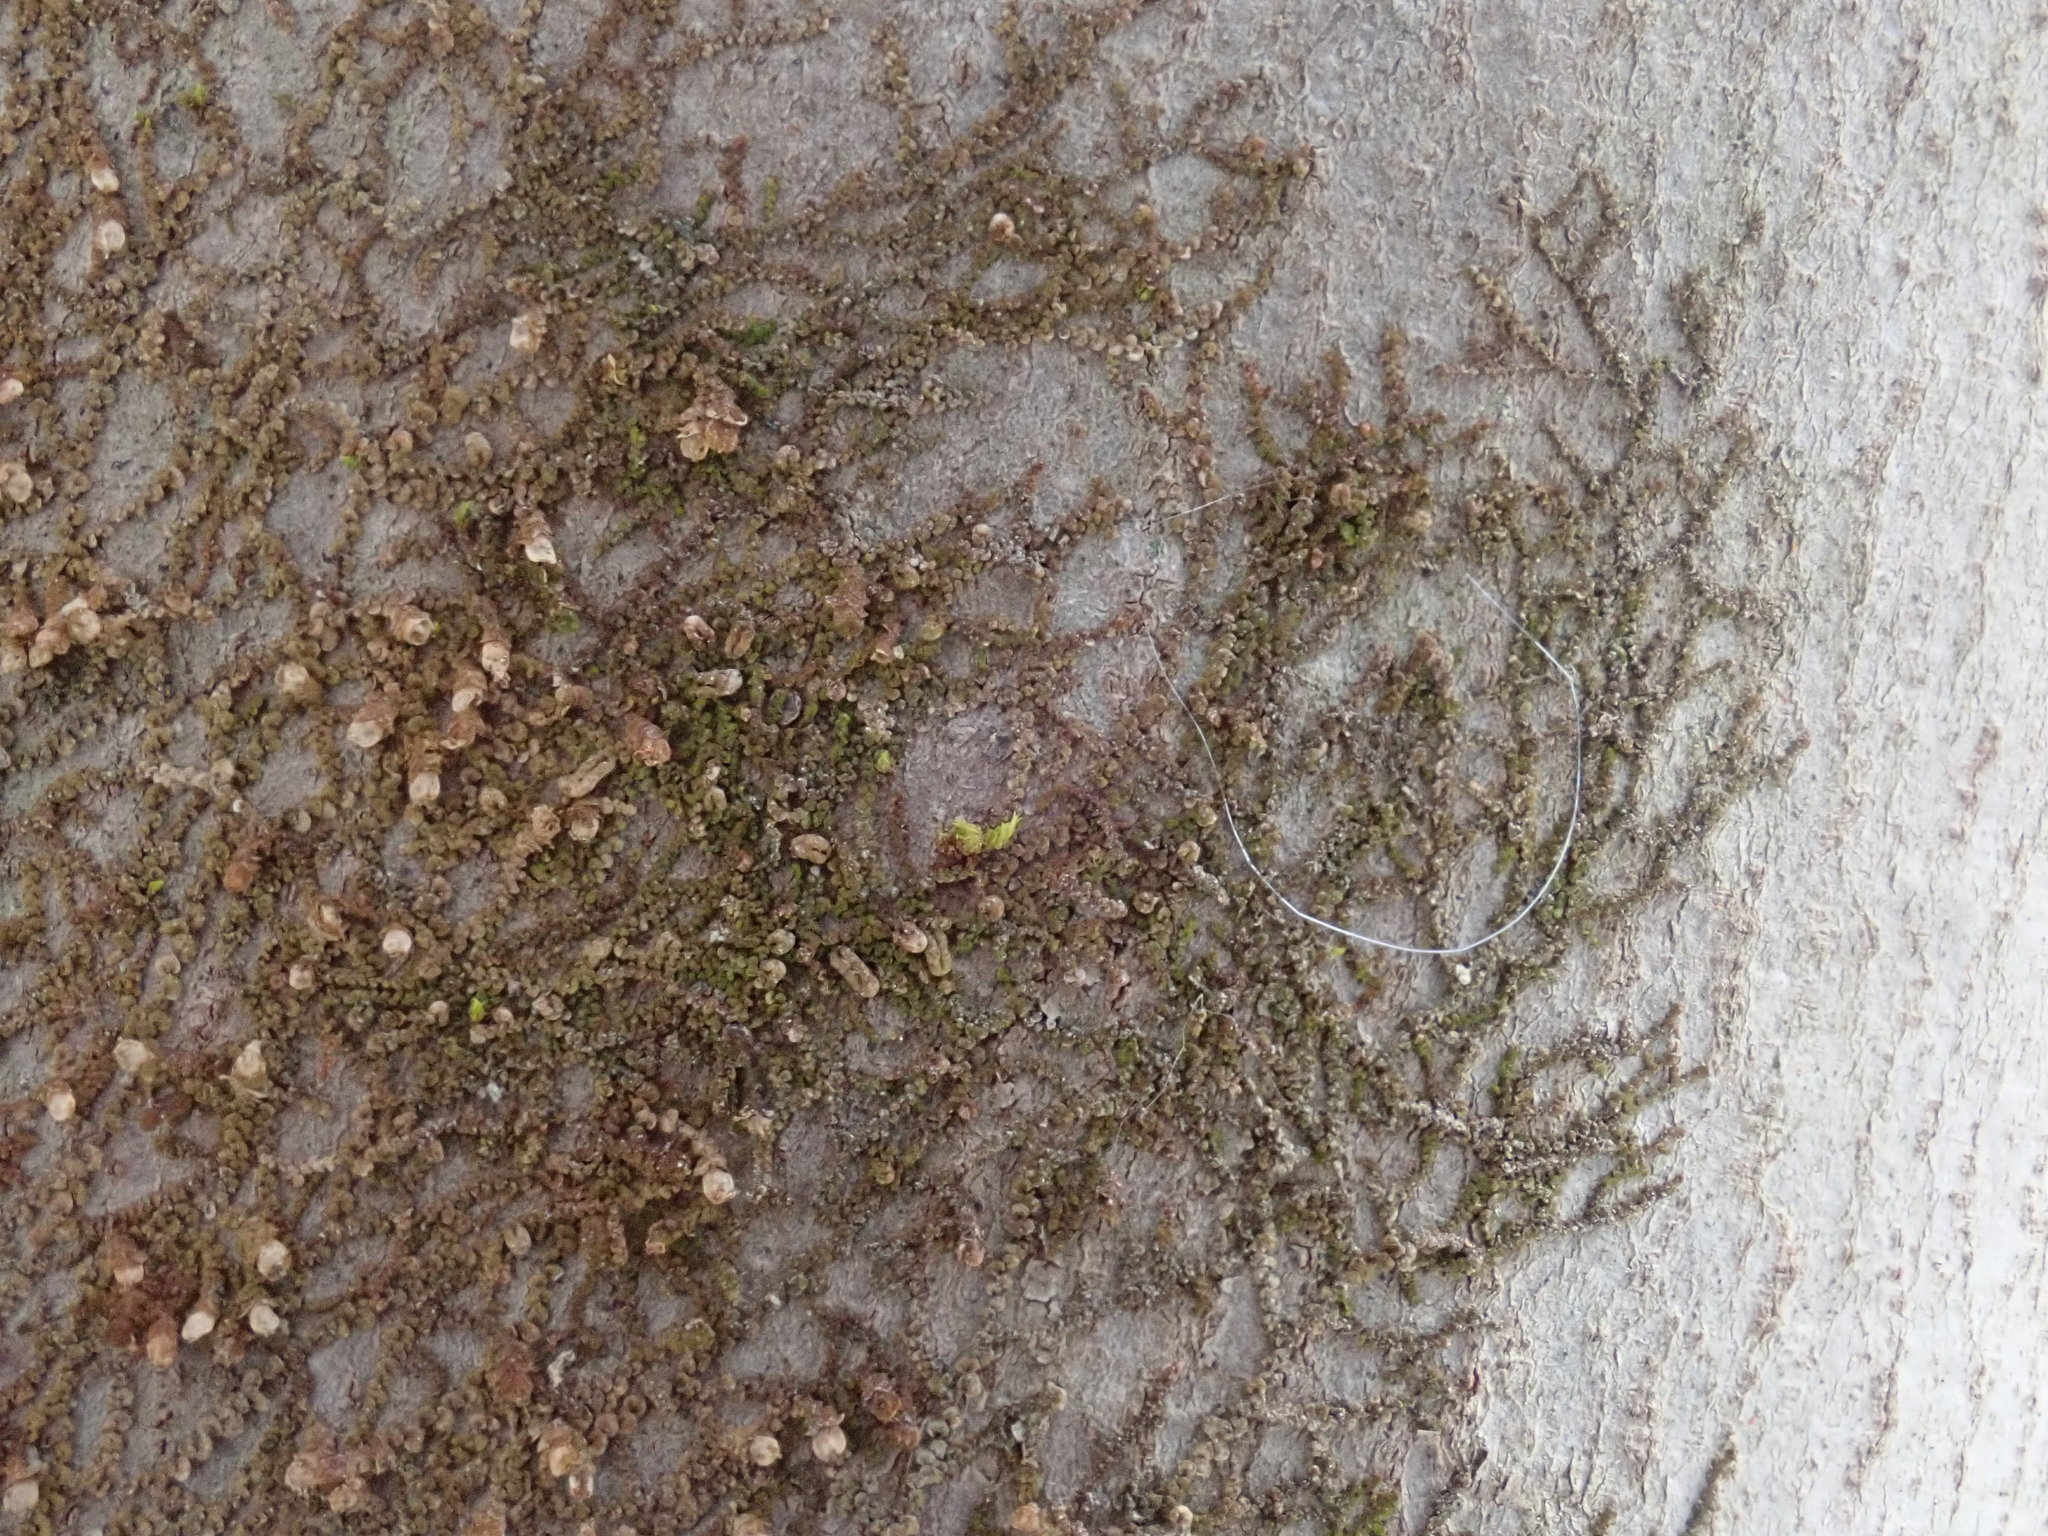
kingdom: Plantae
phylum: Marchantiophyta
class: Jungermanniopsida
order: Porellales
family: Frullaniaceae
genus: Frullania
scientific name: Frullania
